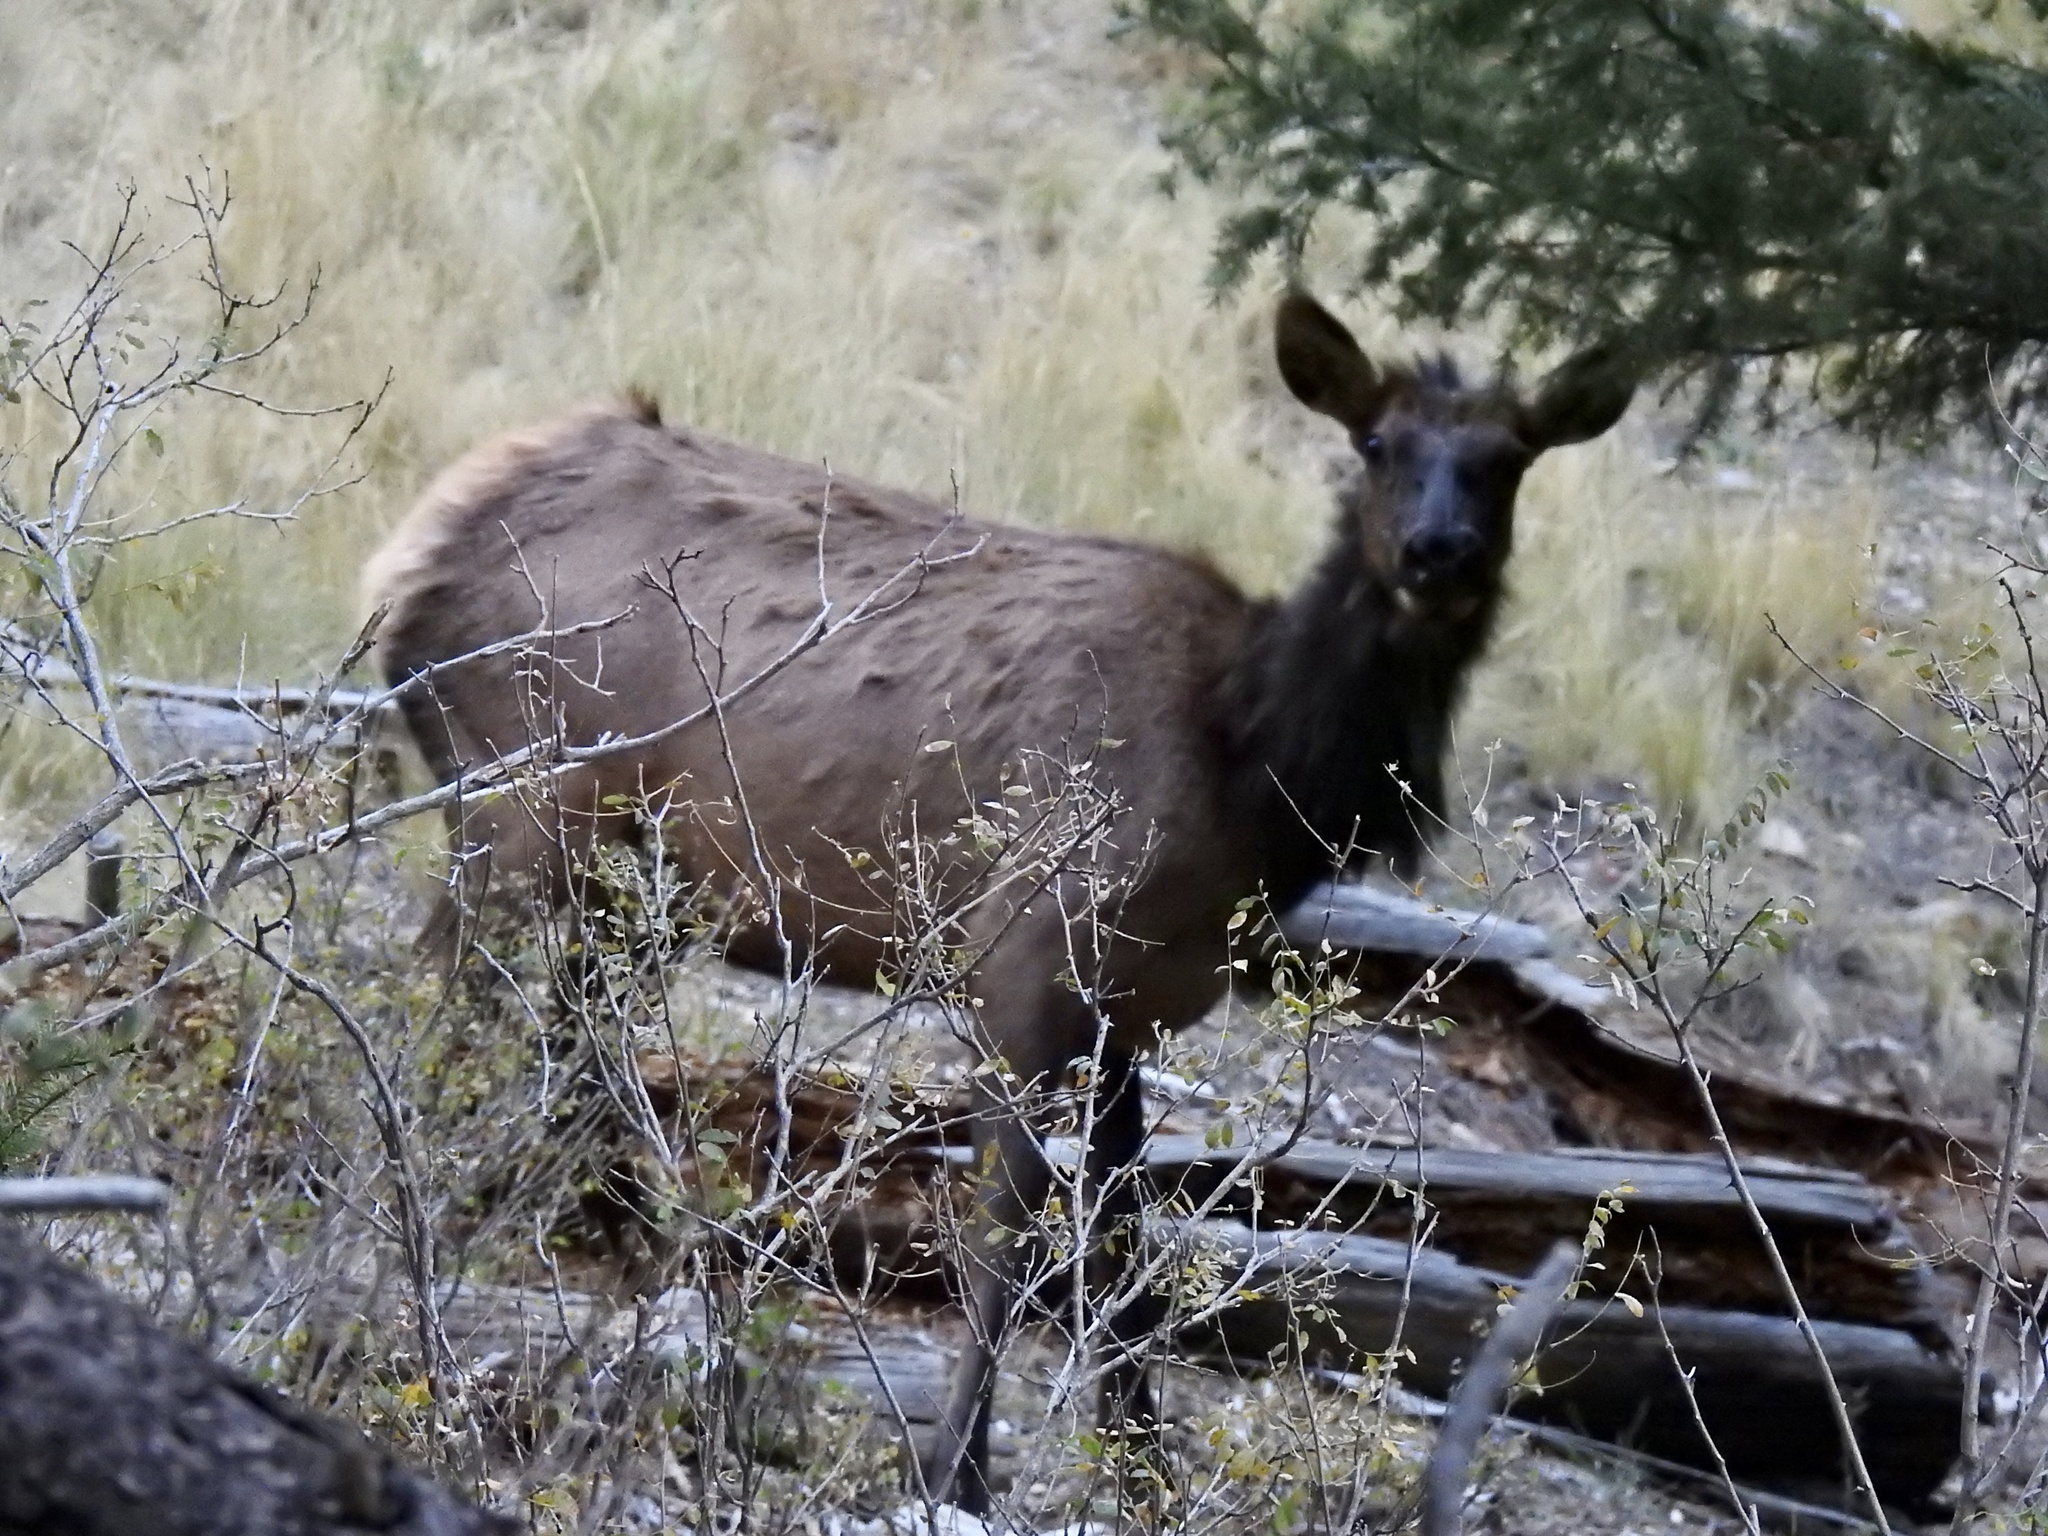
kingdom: Animalia
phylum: Chordata
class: Mammalia
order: Artiodactyla
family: Cervidae
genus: Cervus
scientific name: Cervus elaphus
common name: Red deer
